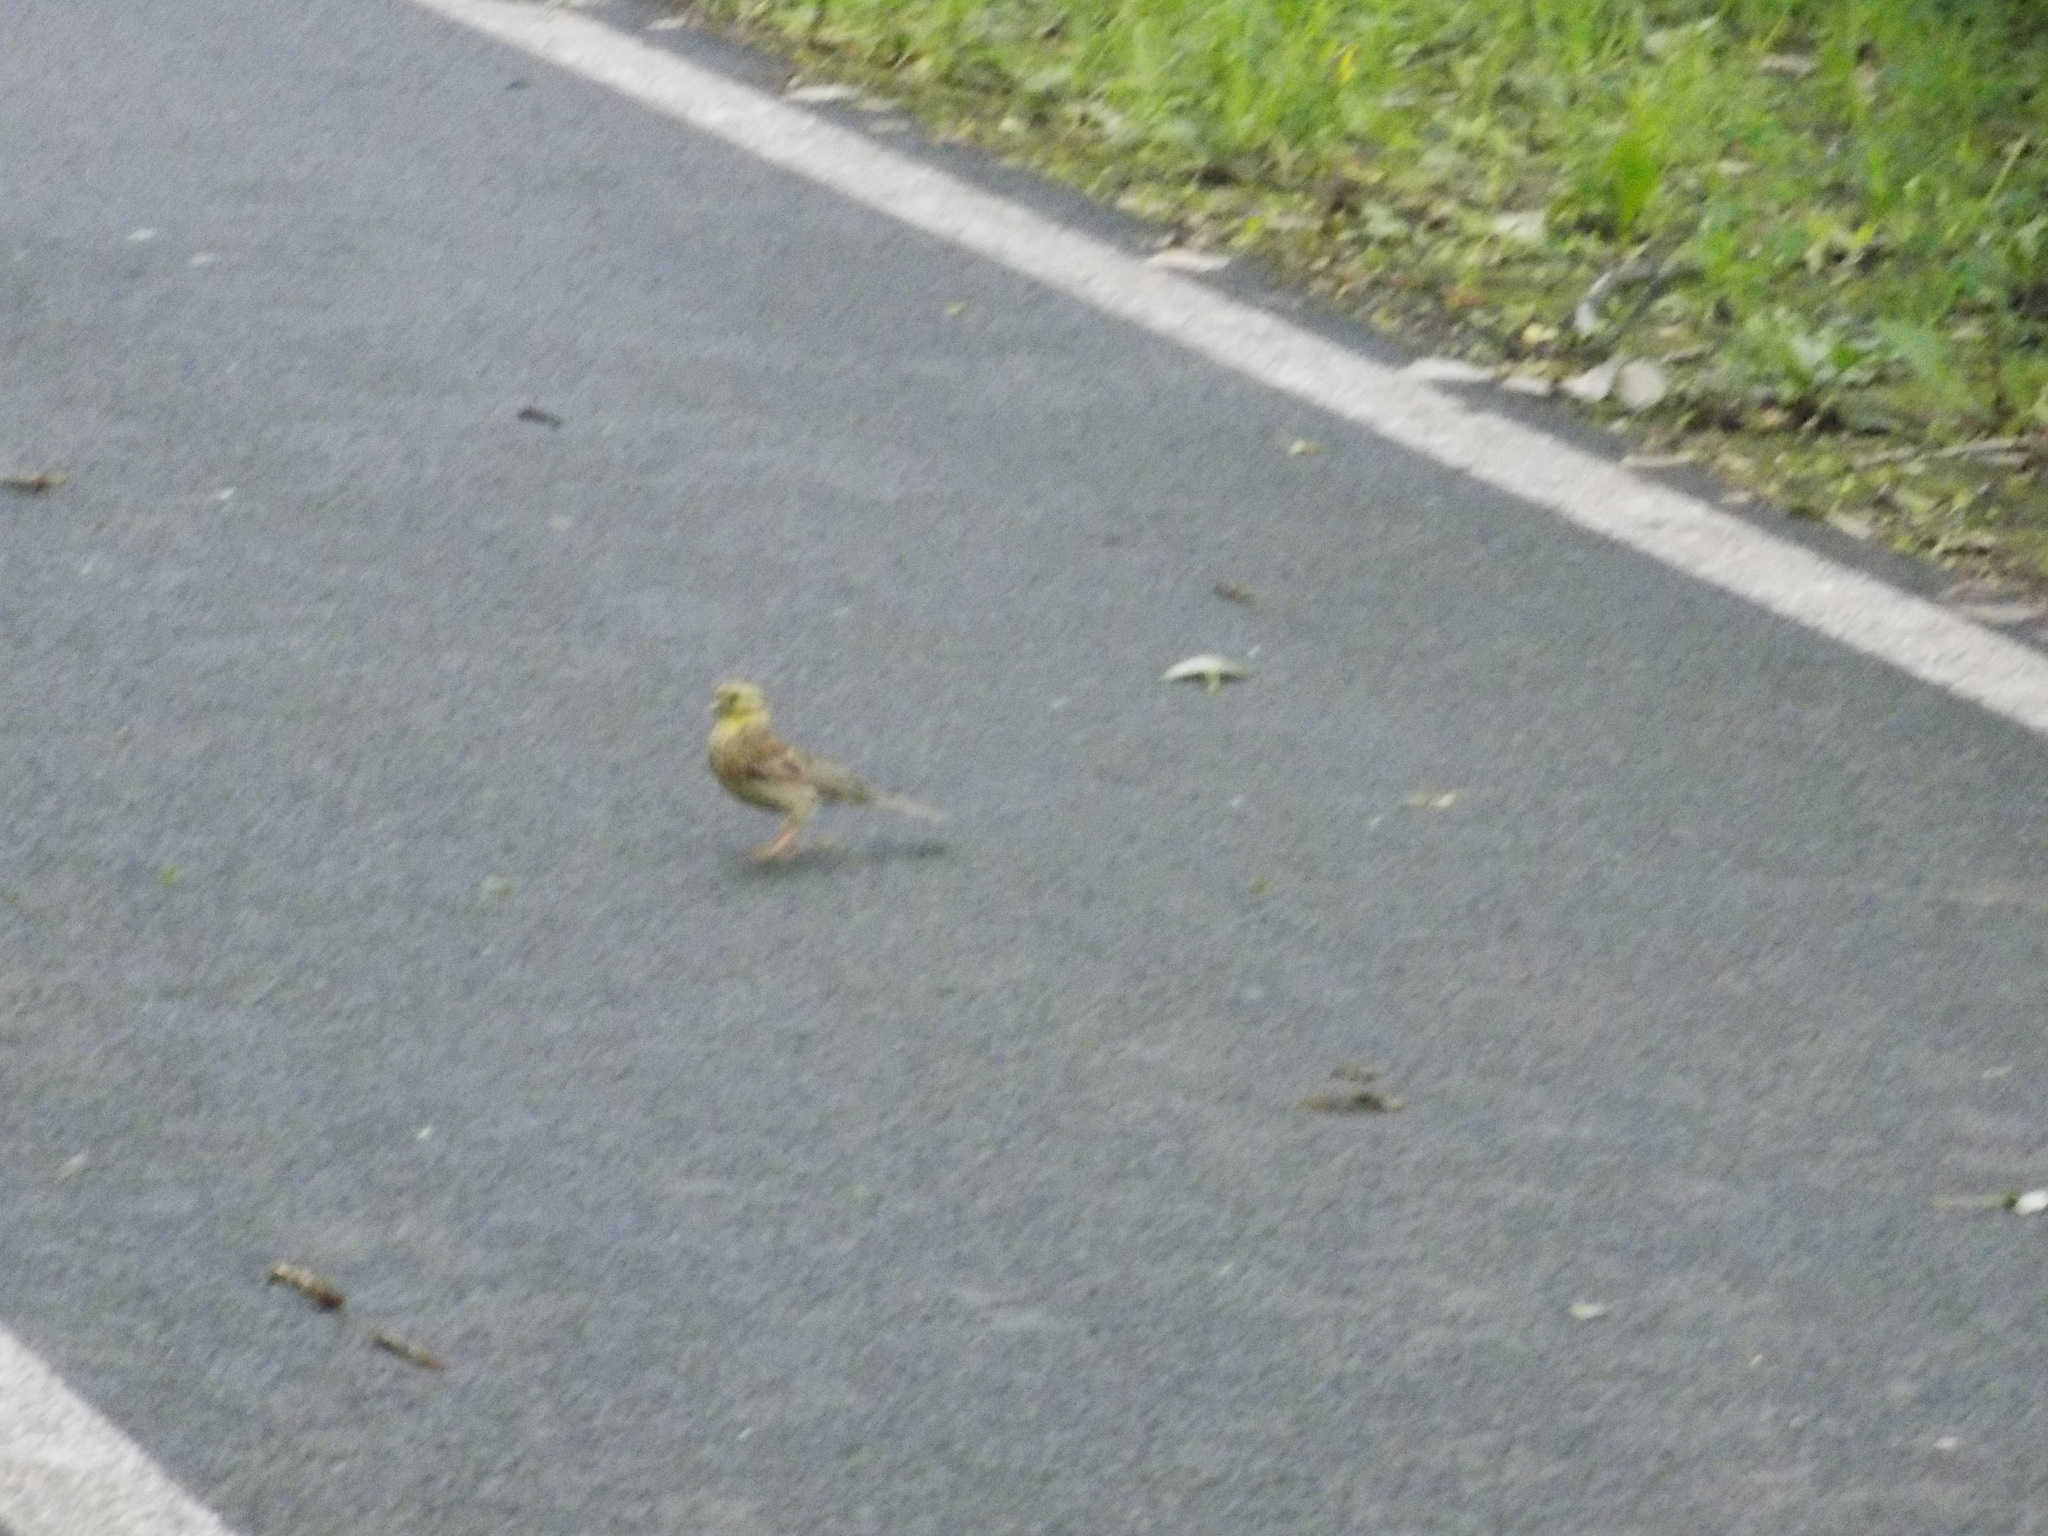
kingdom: Animalia
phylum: Chordata
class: Aves
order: Passeriformes
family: Emberizidae
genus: Emberiza
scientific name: Emberiza citrinella
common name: Yellowhammer
